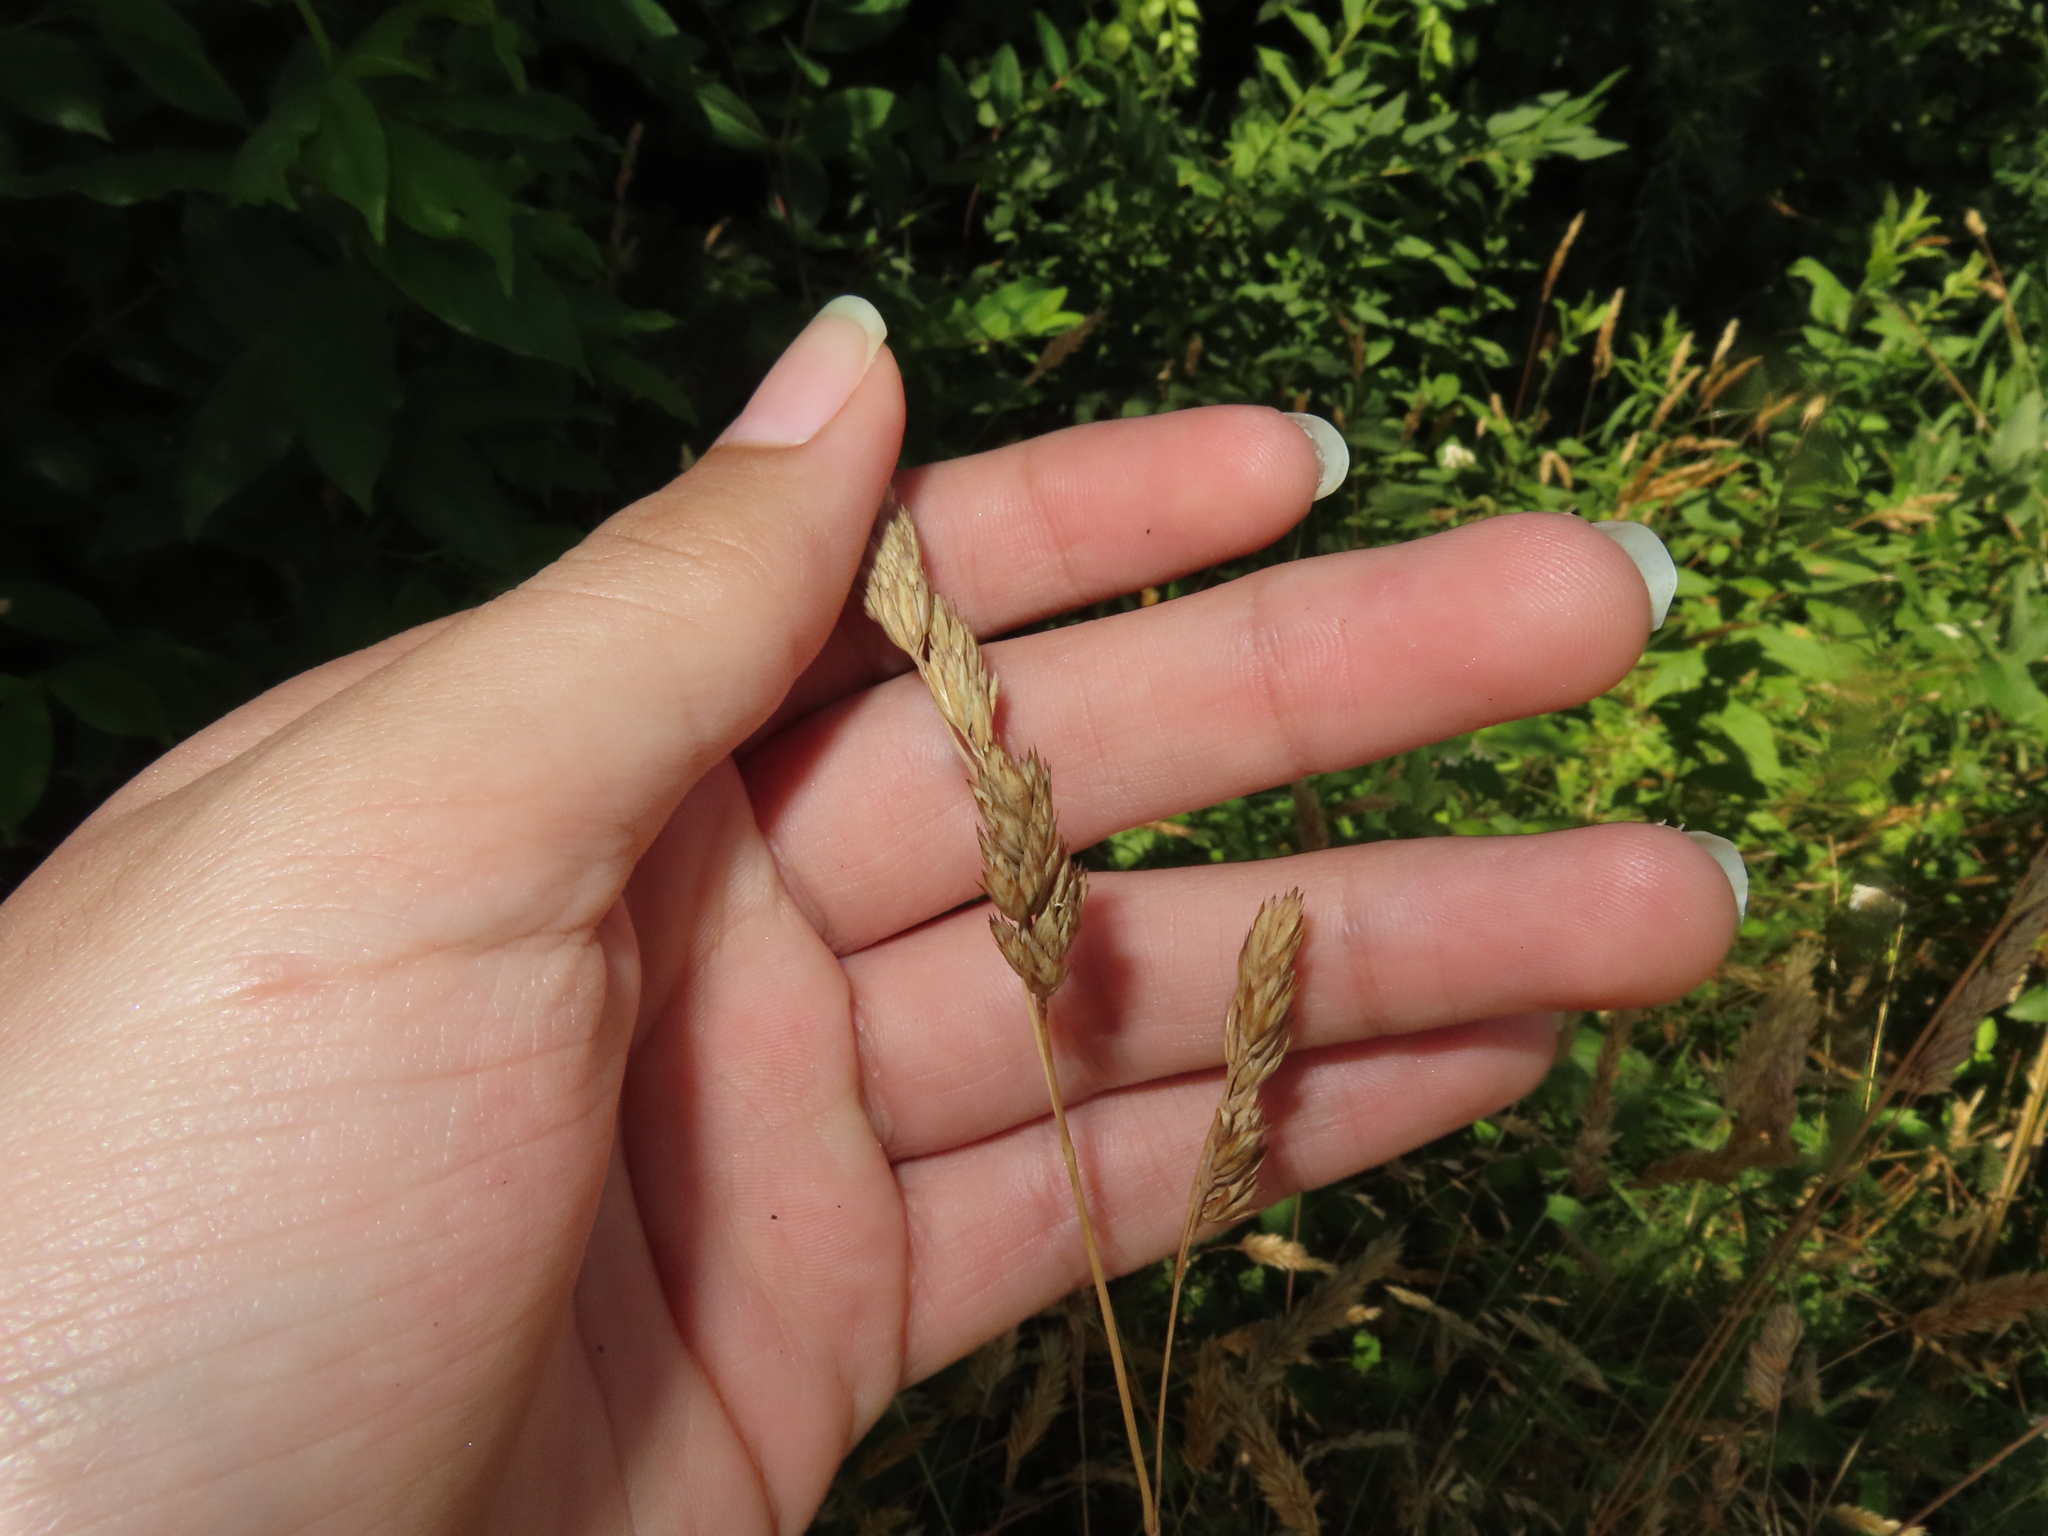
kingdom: Plantae
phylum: Tracheophyta
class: Liliopsida
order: Poales
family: Poaceae
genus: Dactylis
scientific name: Dactylis glomerata
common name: Orchardgrass
